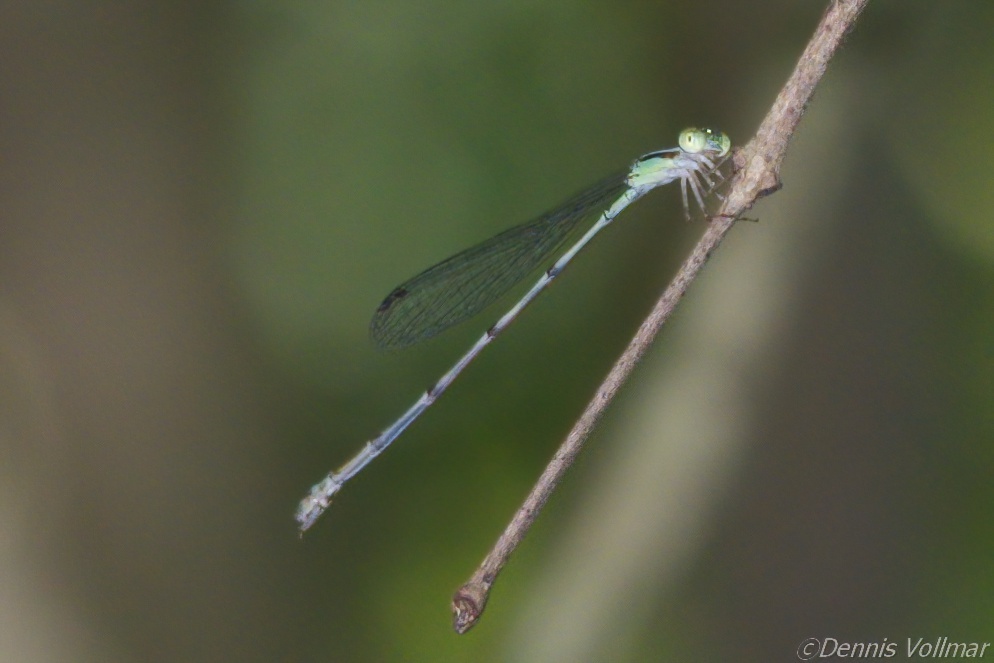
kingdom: Animalia
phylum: Arthropoda
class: Insecta
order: Odonata
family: Coenagrionidae
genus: Leptobasis
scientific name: Leptobasis lucifer
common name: Lucifer swampdamsel
